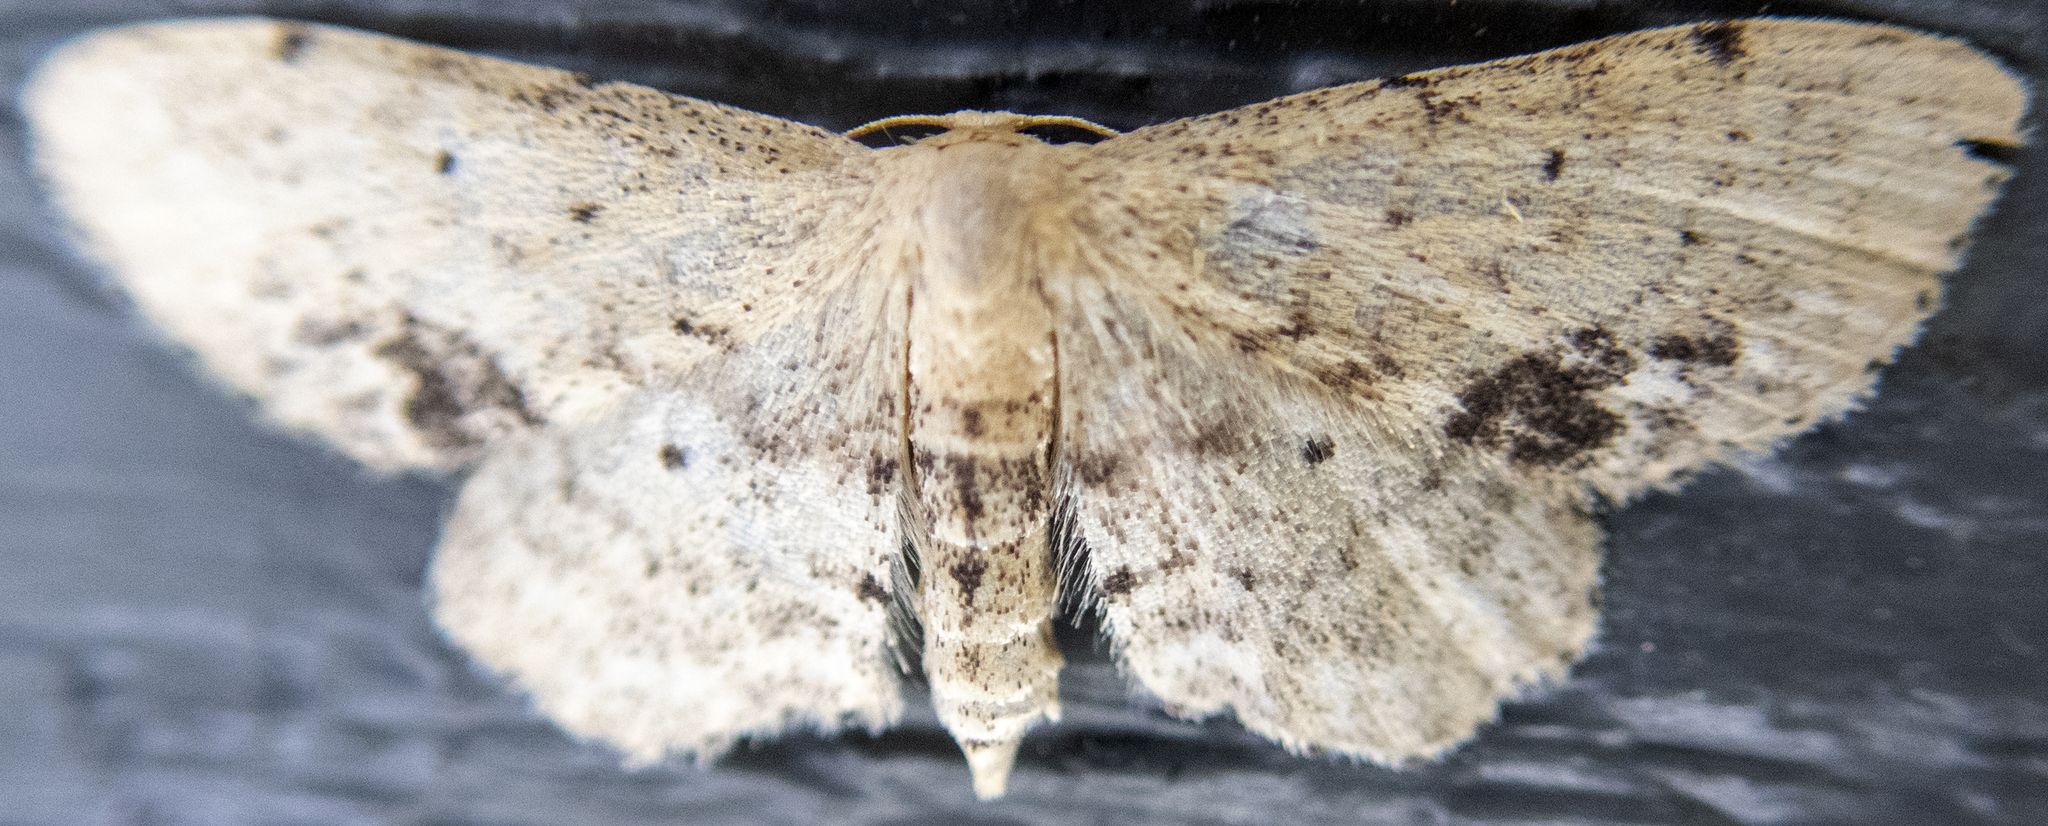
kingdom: Animalia
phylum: Arthropoda
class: Insecta
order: Lepidoptera
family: Geometridae
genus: Idaea
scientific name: Idaea dimidiata
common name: Single-dotted wave
